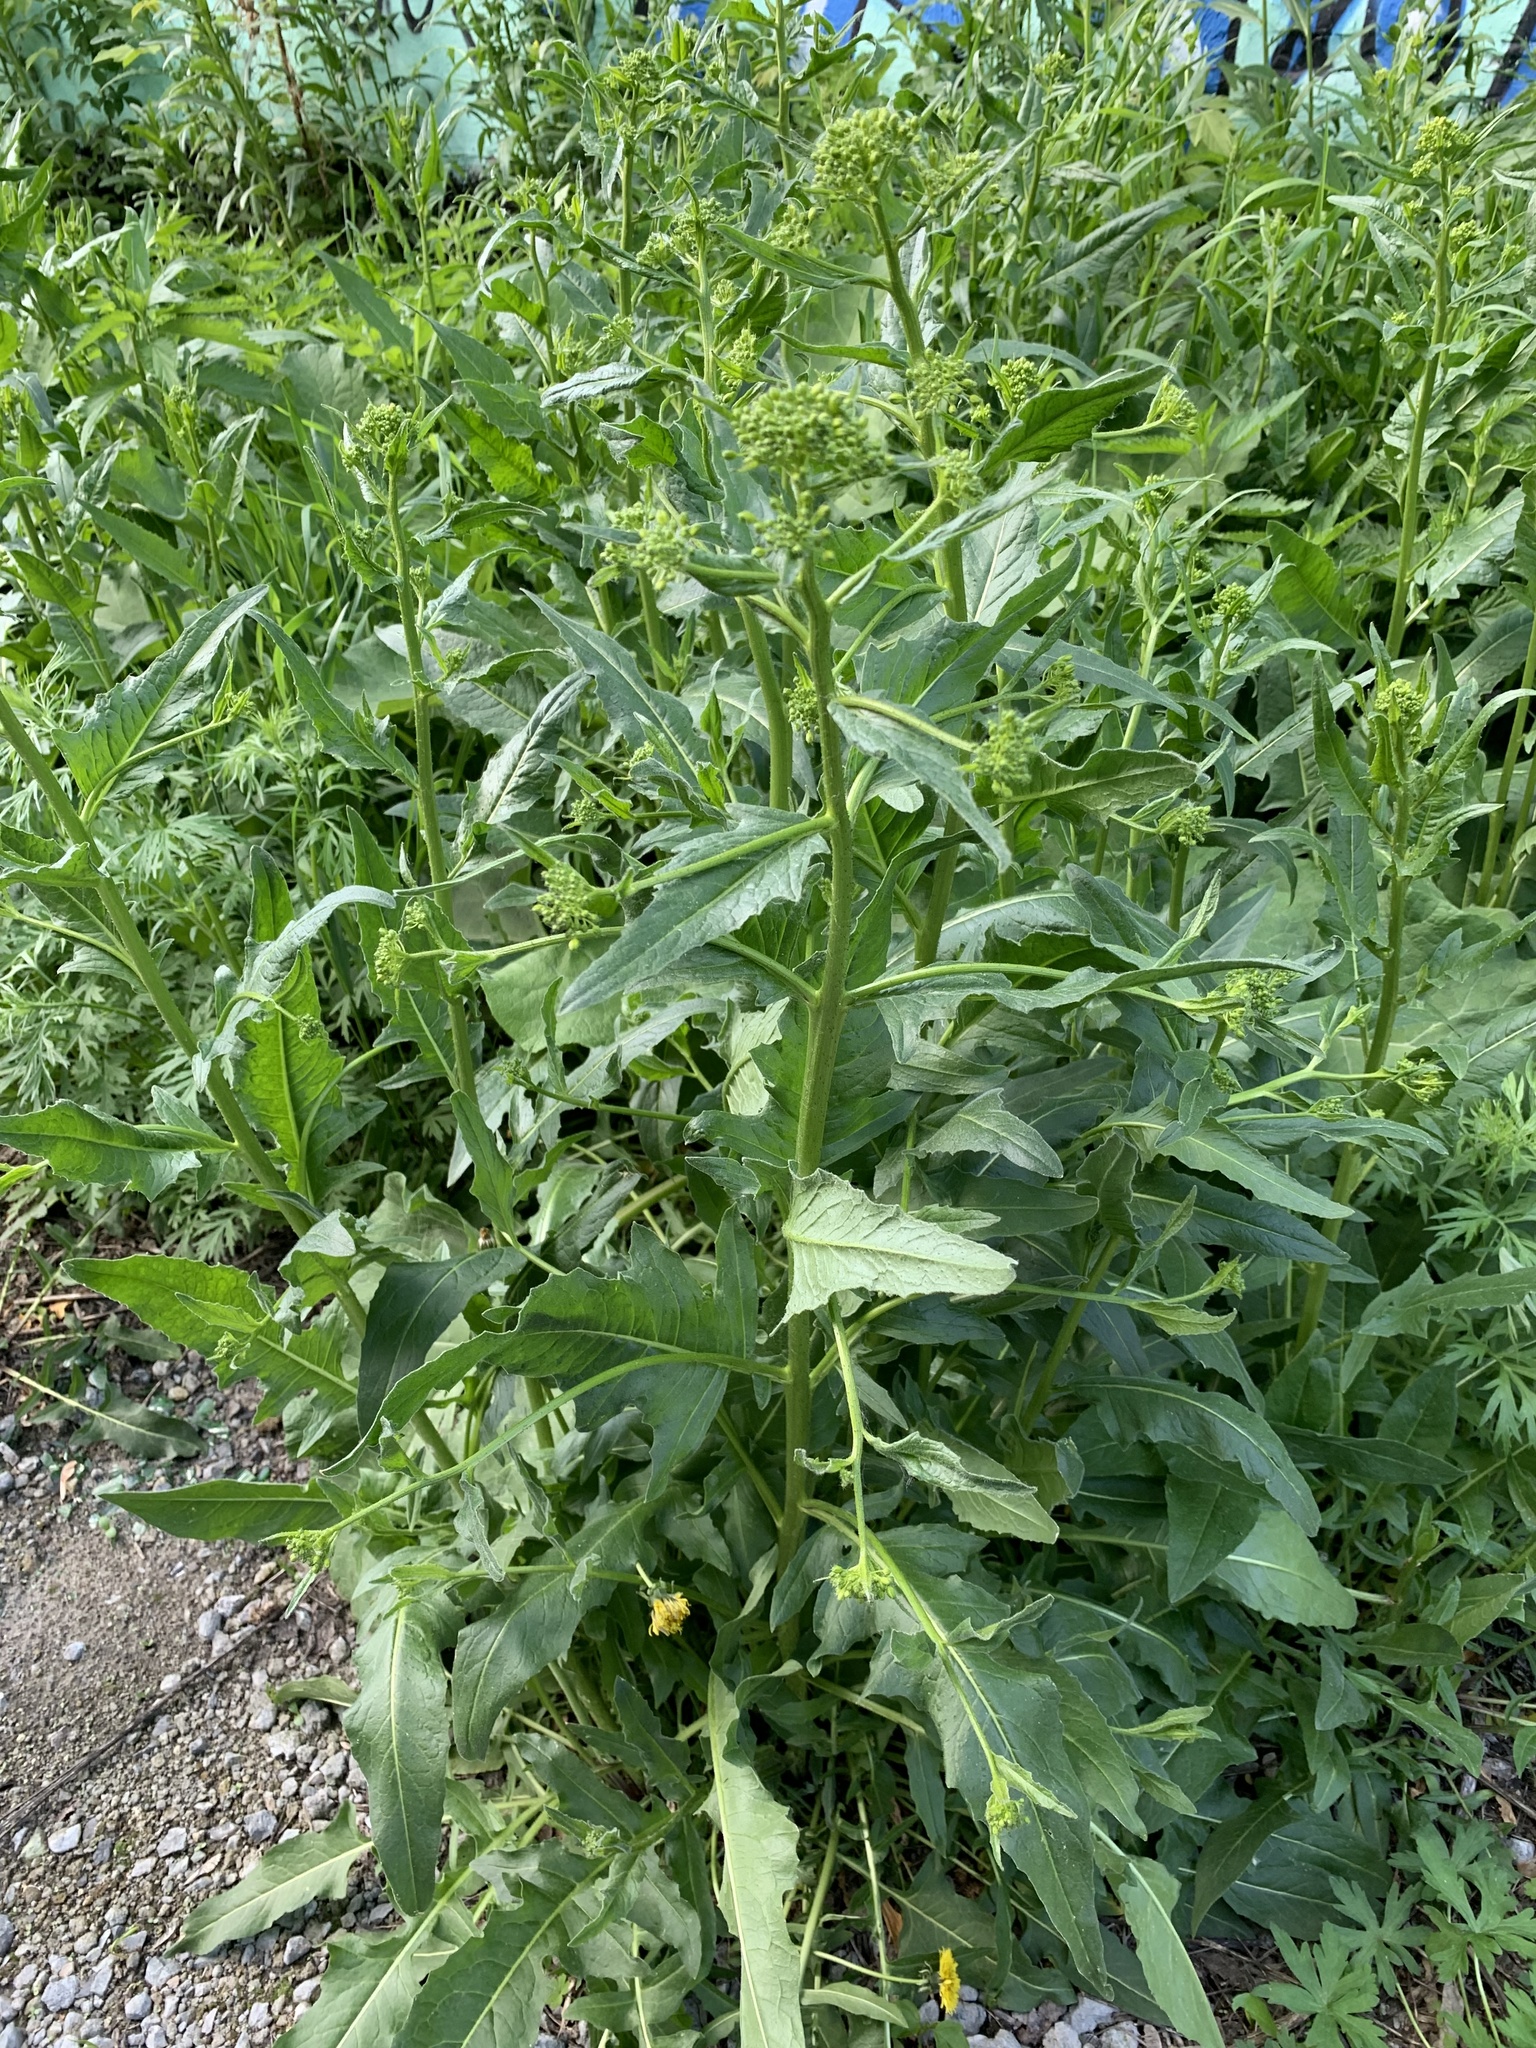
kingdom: Plantae
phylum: Tracheophyta
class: Magnoliopsida
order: Brassicales
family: Brassicaceae
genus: Bunias
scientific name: Bunias orientalis
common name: Warty-cabbage
